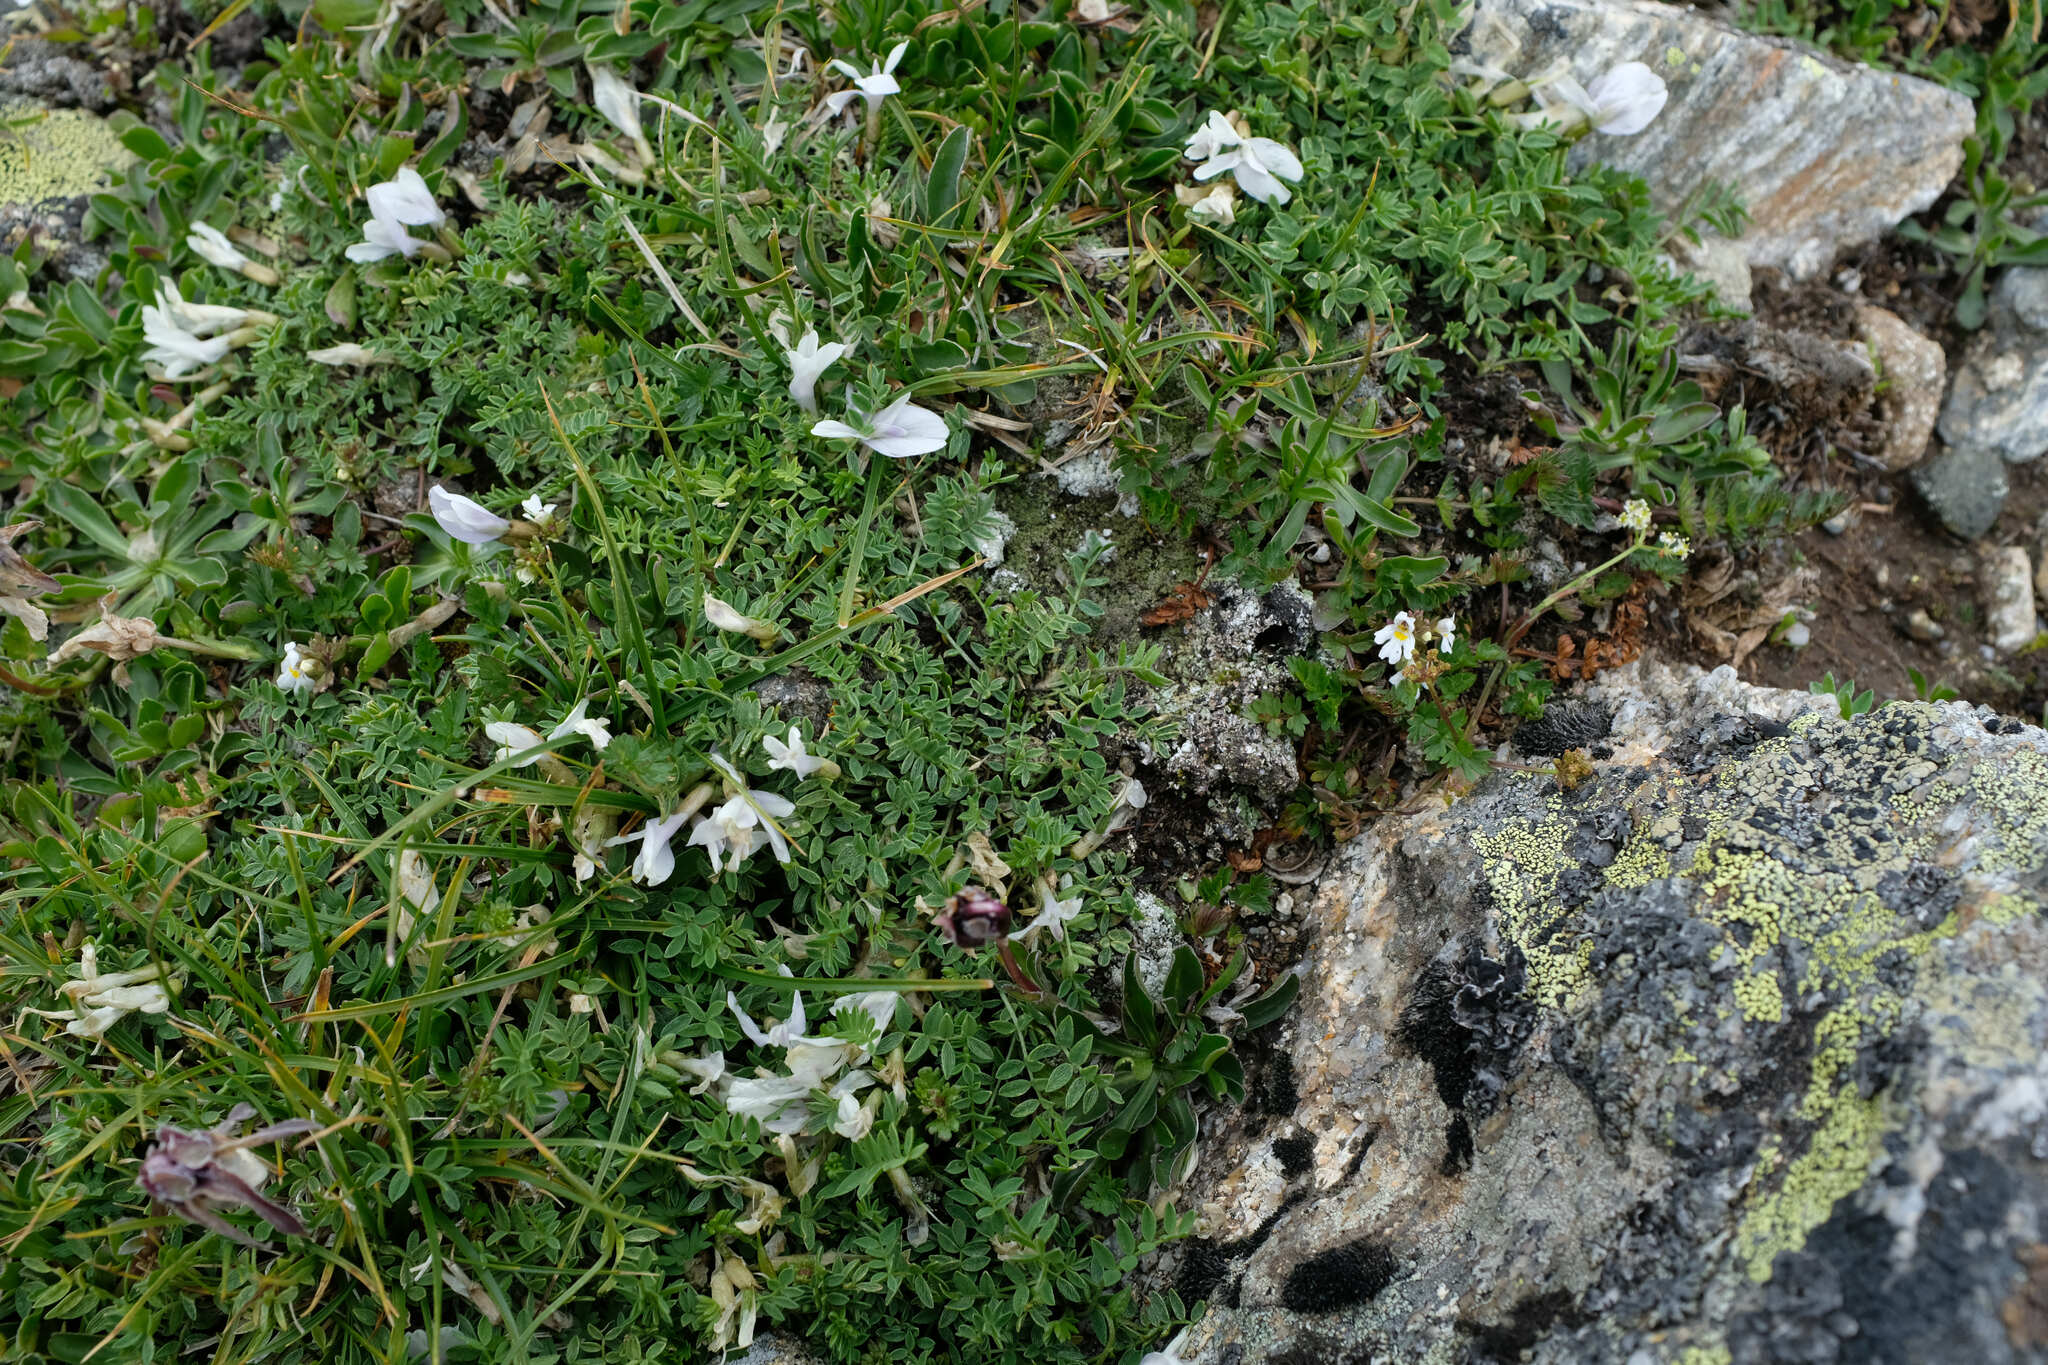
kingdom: Plantae
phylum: Tracheophyta
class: Magnoliopsida
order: Fabales
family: Fabaceae
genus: Astragalus
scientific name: Astragalus levieri
